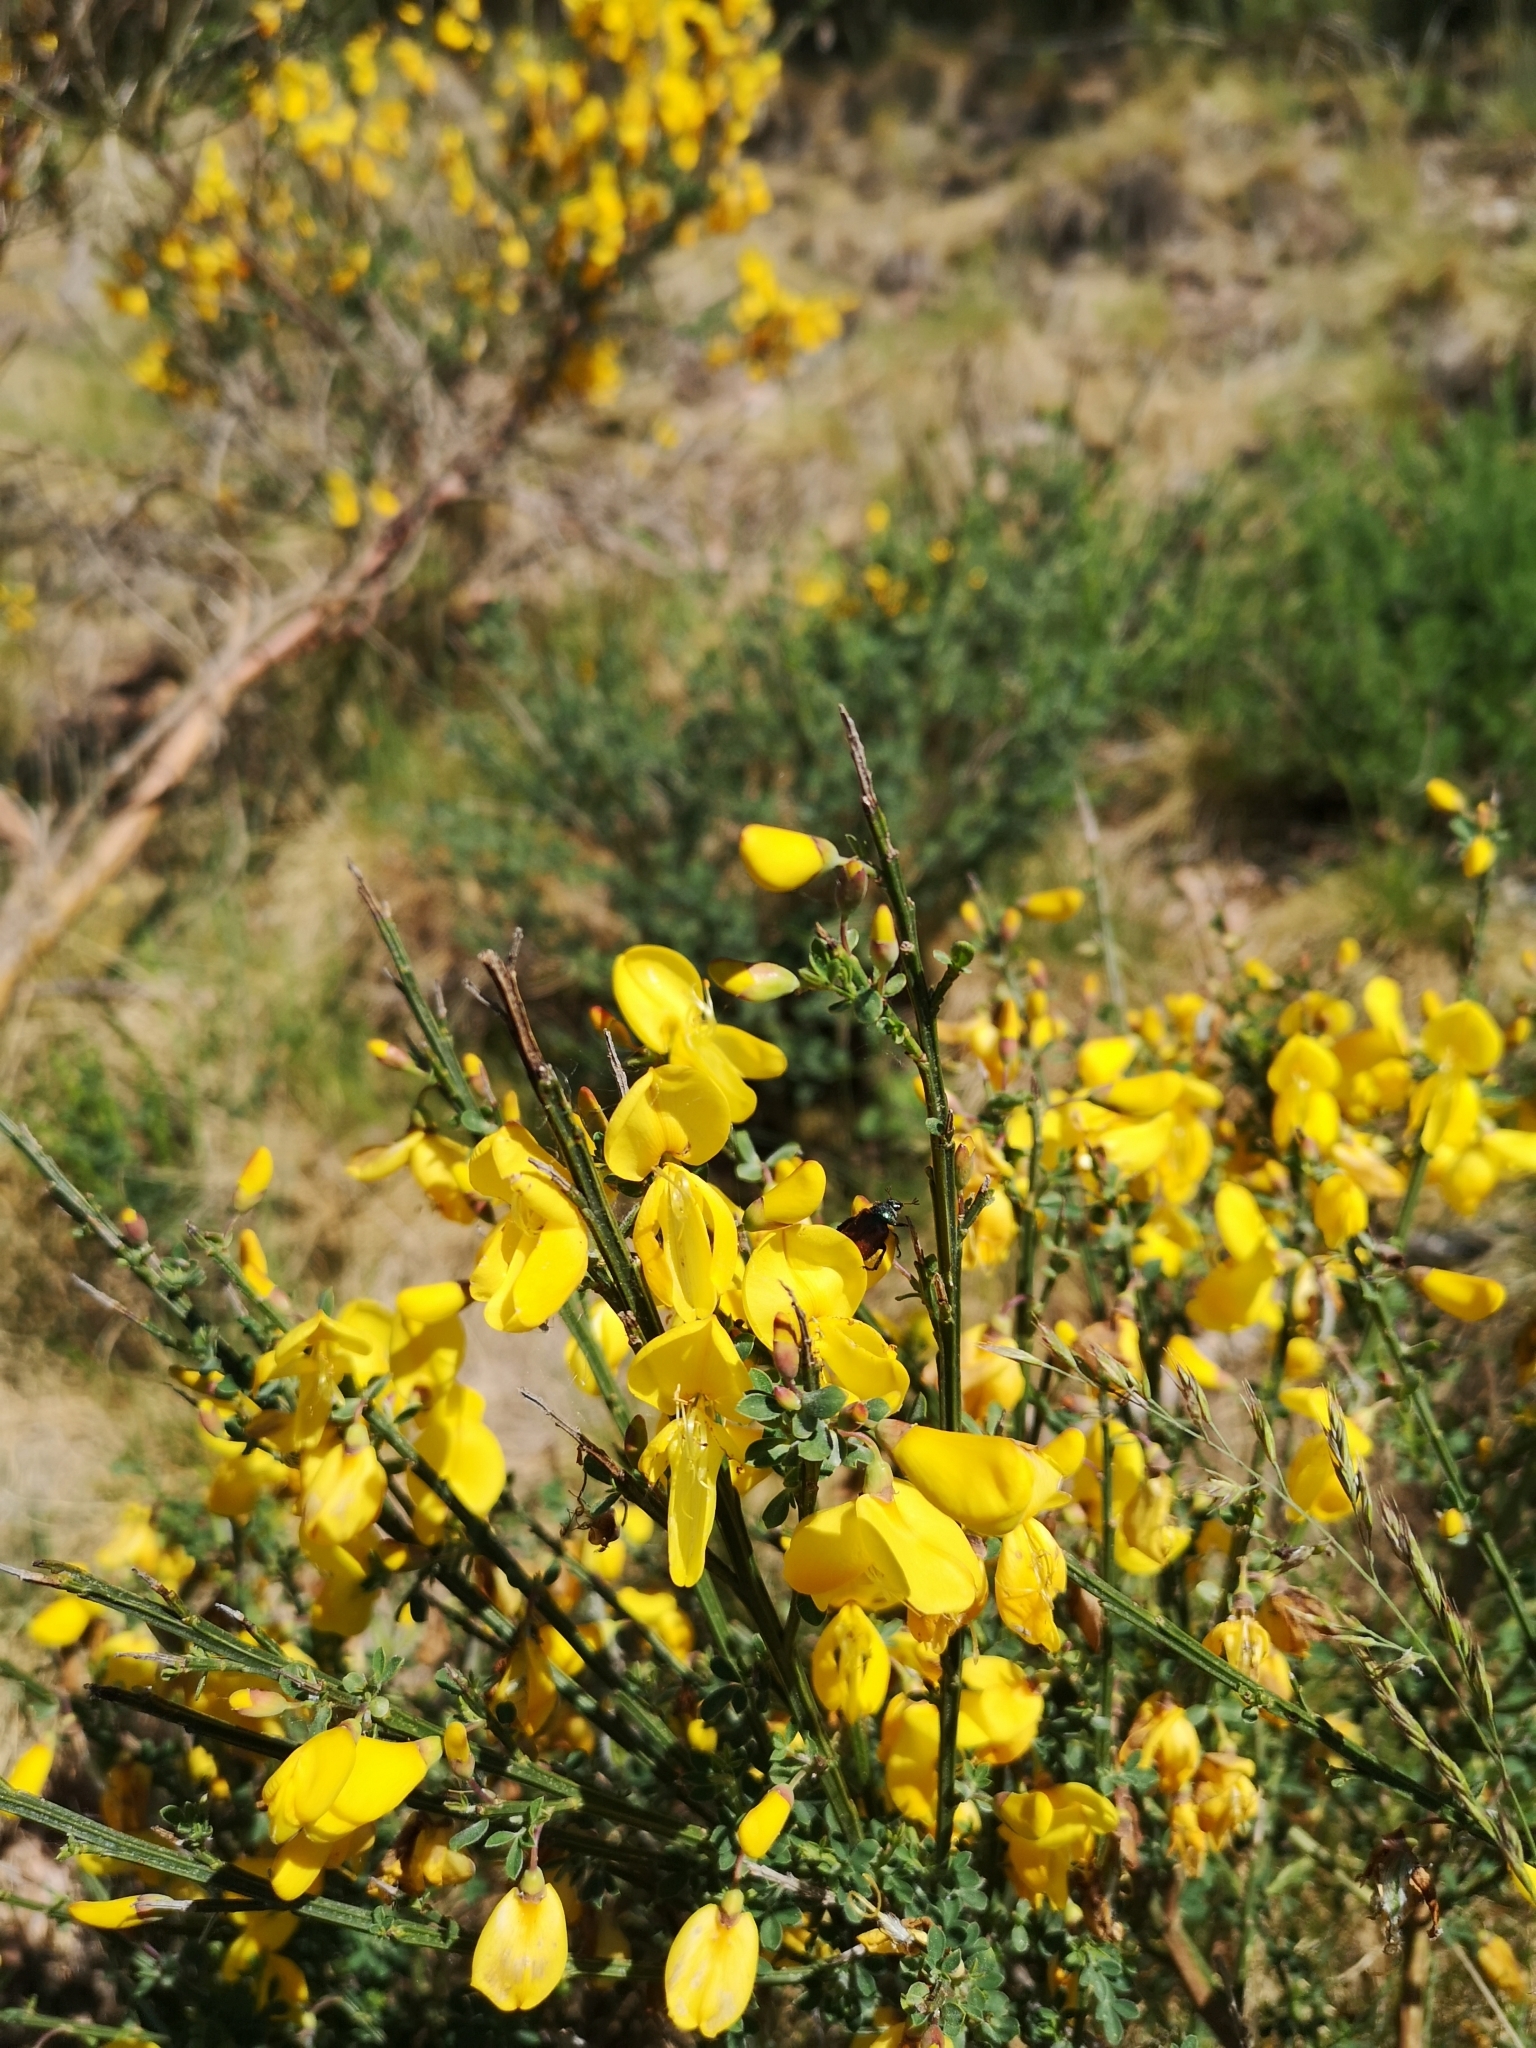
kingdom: Plantae
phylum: Tracheophyta
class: Magnoliopsida
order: Fabales
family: Fabaceae
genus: Cytisus
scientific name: Cytisus scoparius
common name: Scotch broom
